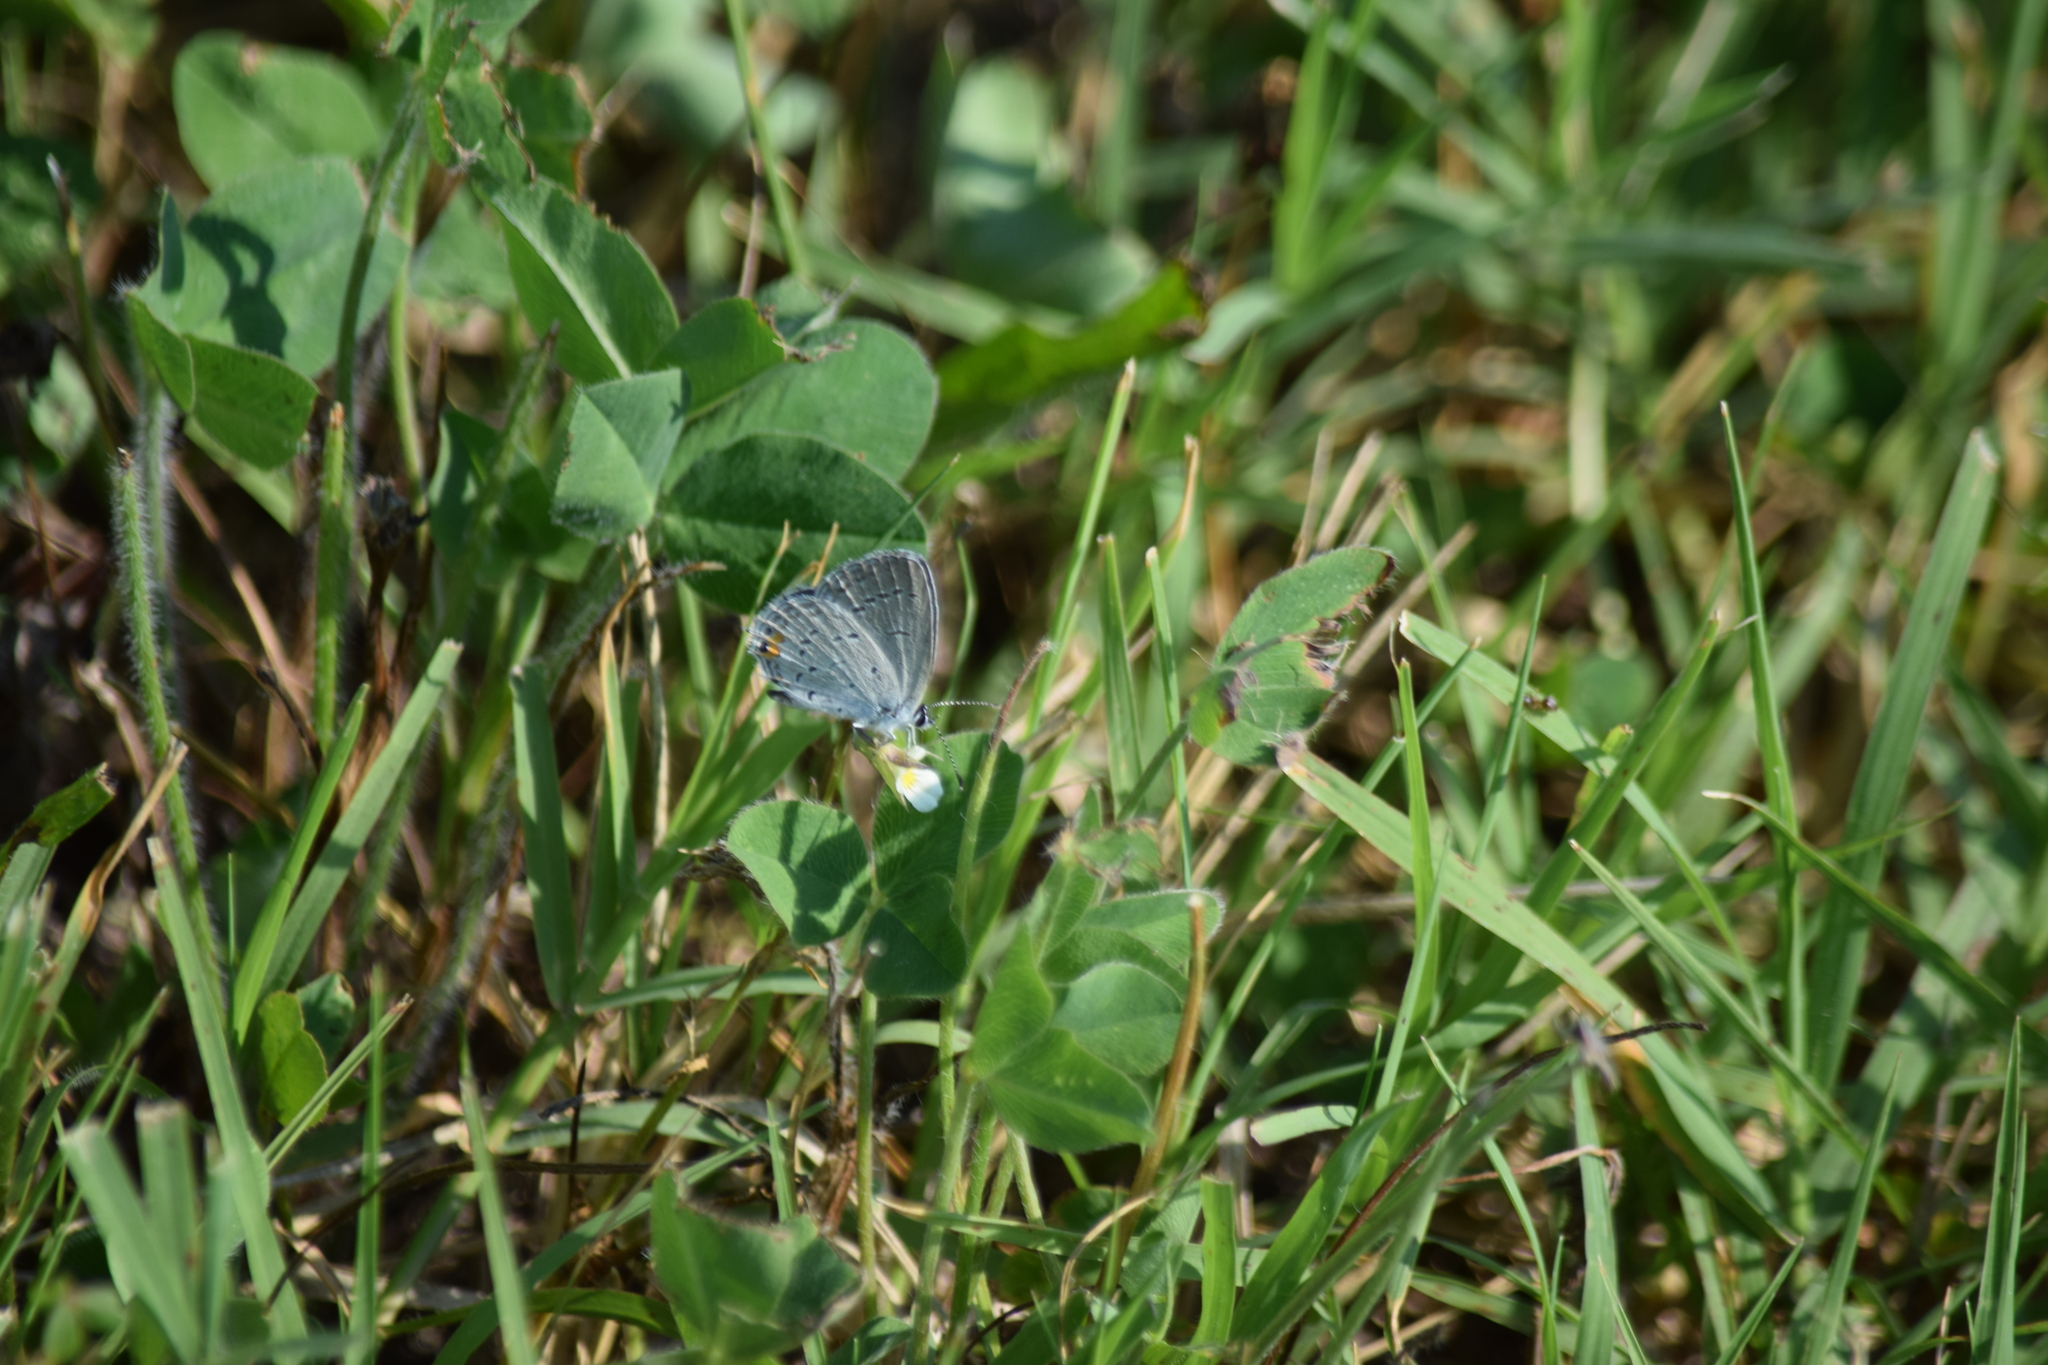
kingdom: Animalia
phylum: Arthropoda
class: Insecta
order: Lepidoptera
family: Lycaenidae
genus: Elkalyce
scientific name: Elkalyce comyntas
